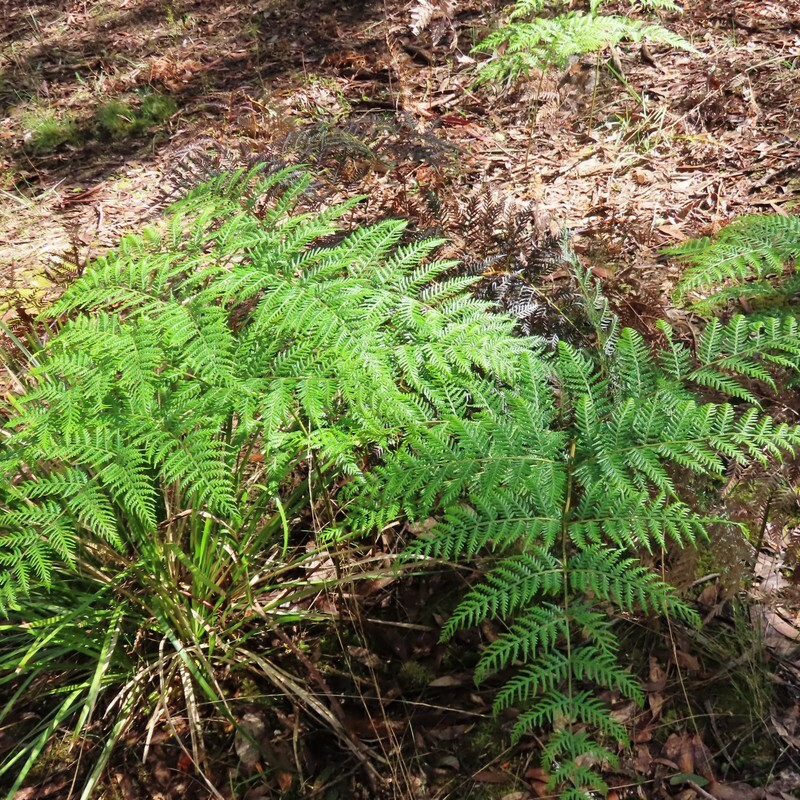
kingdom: Plantae
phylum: Tracheophyta
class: Polypodiopsida
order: Polypodiales
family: Dennstaedtiaceae
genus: Pteridium
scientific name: Pteridium esculentum
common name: Bracken fern
